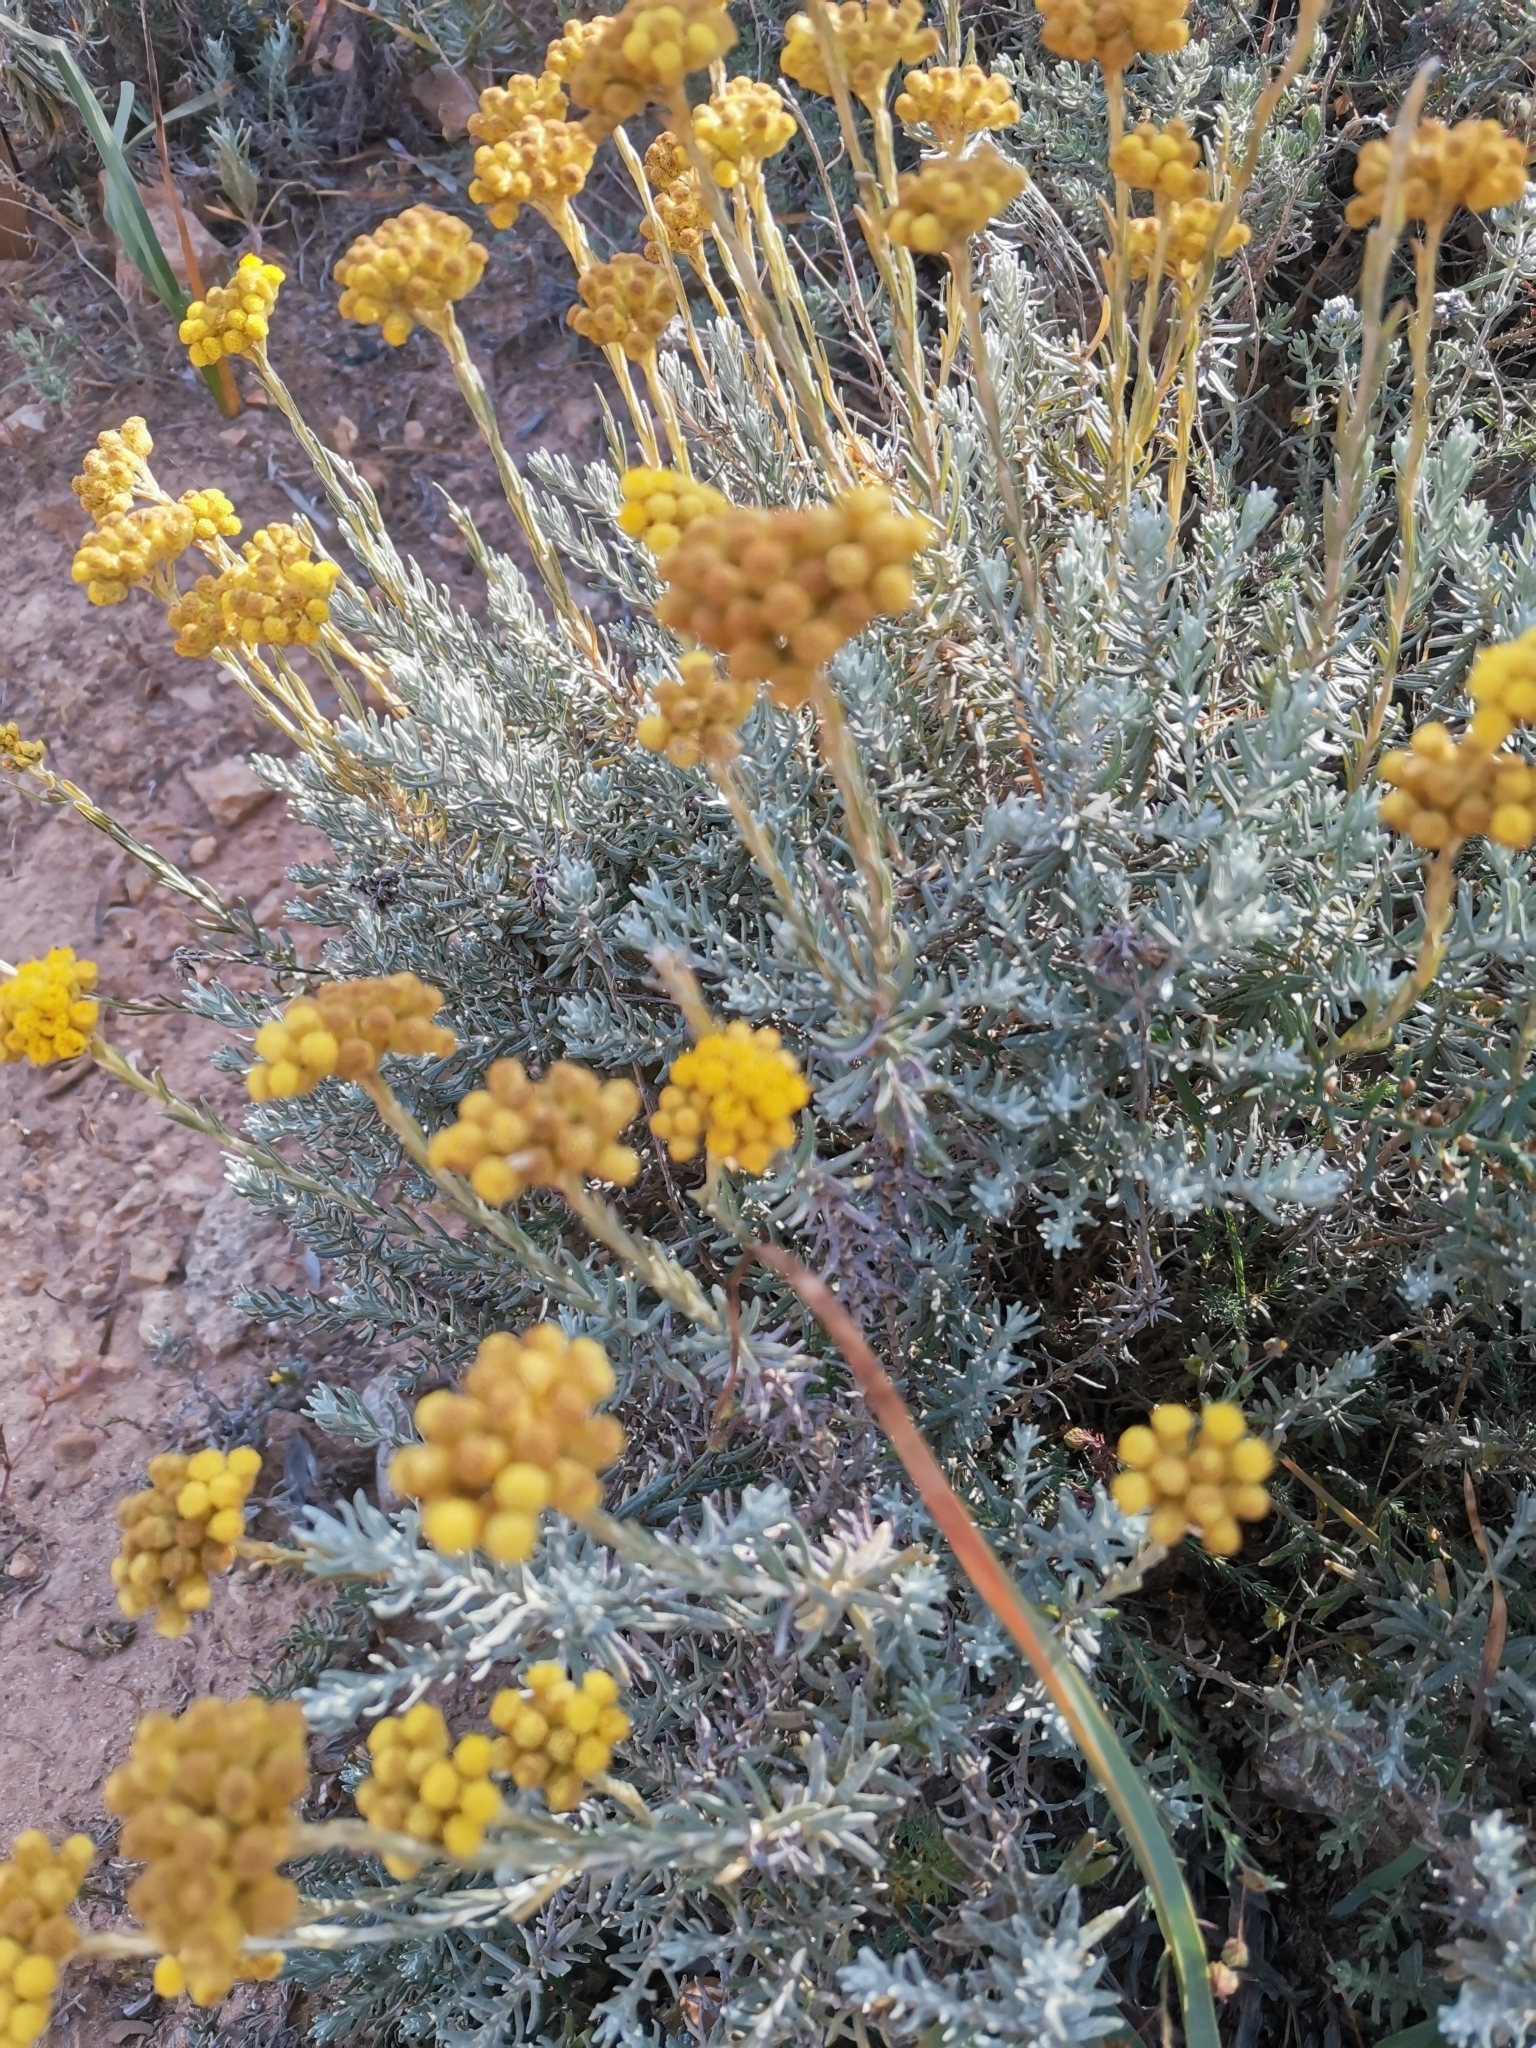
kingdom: Plantae
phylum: Tracheophyta
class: Magnoliopsida
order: Asterales
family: Asteraceae
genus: Helichrysum
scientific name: Helichrysum stoechas
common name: Goldilocks
